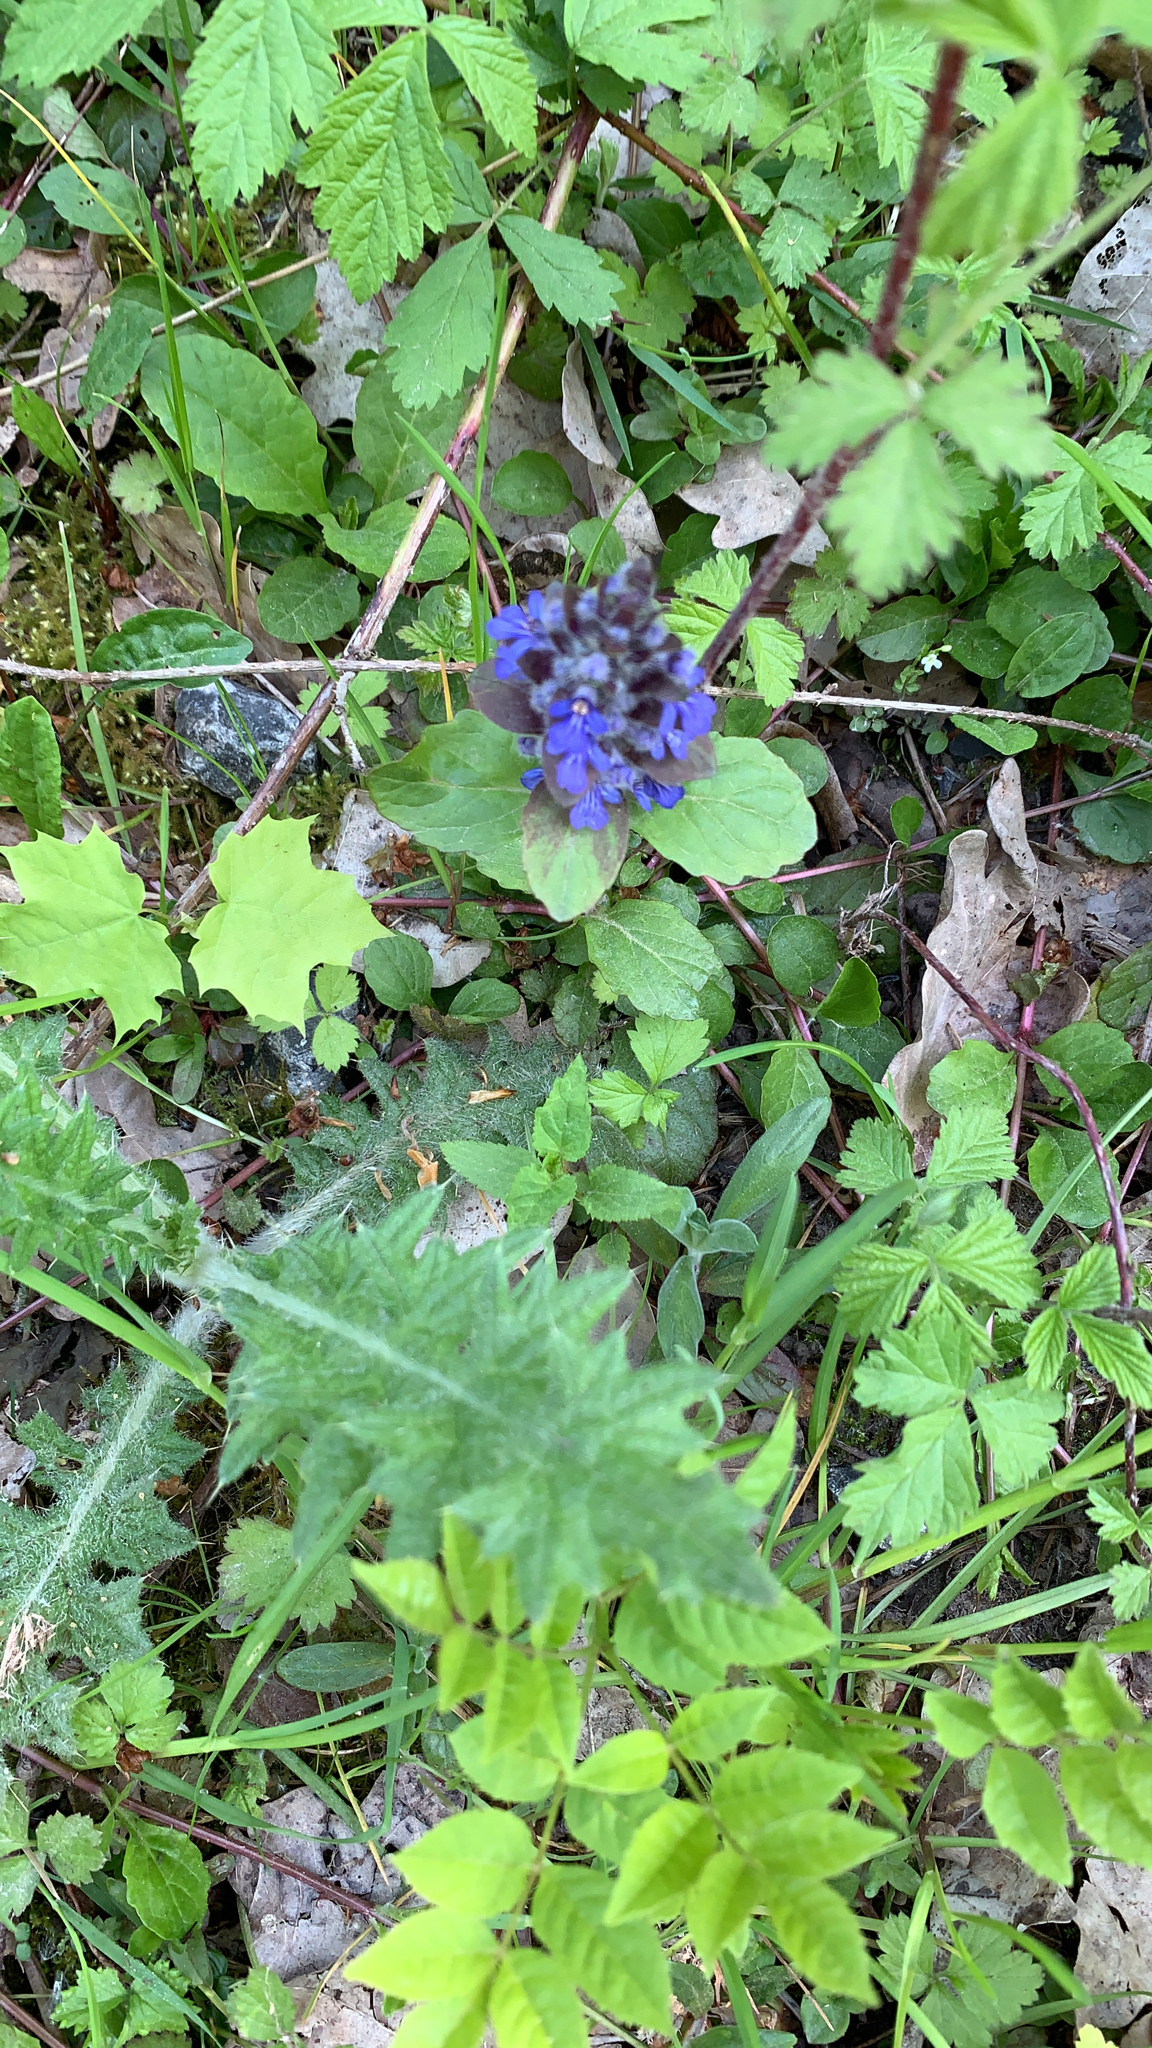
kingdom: Plantae
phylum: Tracheophyta
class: Magnoliopsida
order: Lamiales
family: Lamiaceae
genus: Ajuga
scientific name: Ajuga reptans
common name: Bugle
